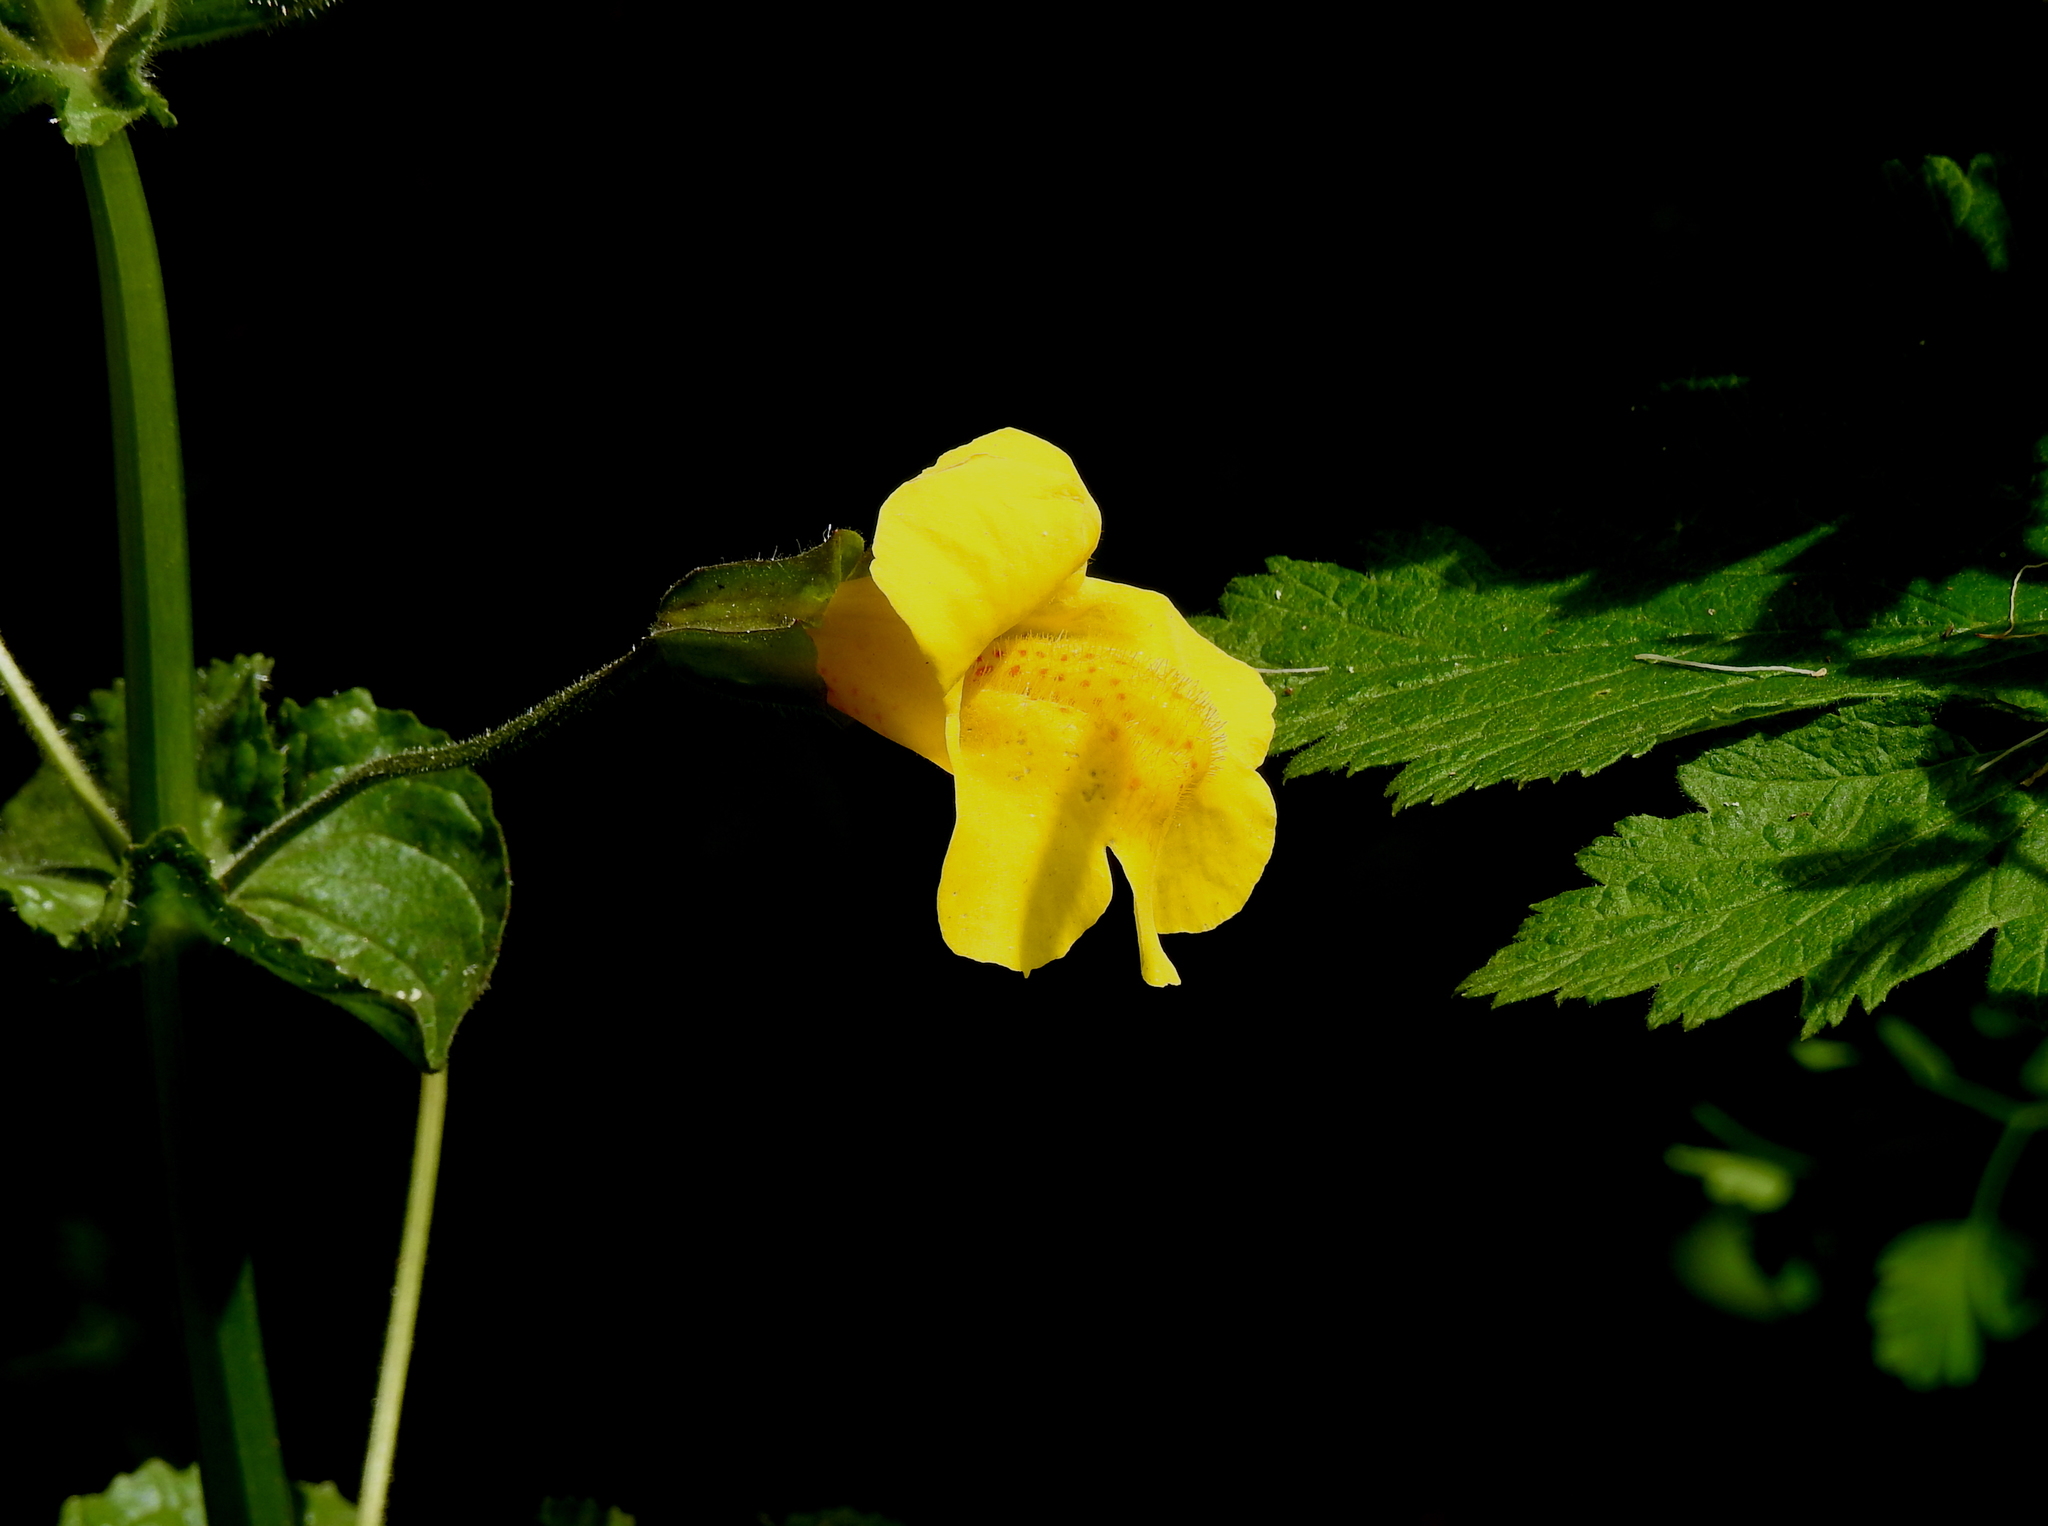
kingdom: Plantae
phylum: Tracheophyta
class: Magnoliopsida
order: Lamiales
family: Phrymaceae
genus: Erythranthe
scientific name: Erythranthe guttata
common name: Monkeyflower
